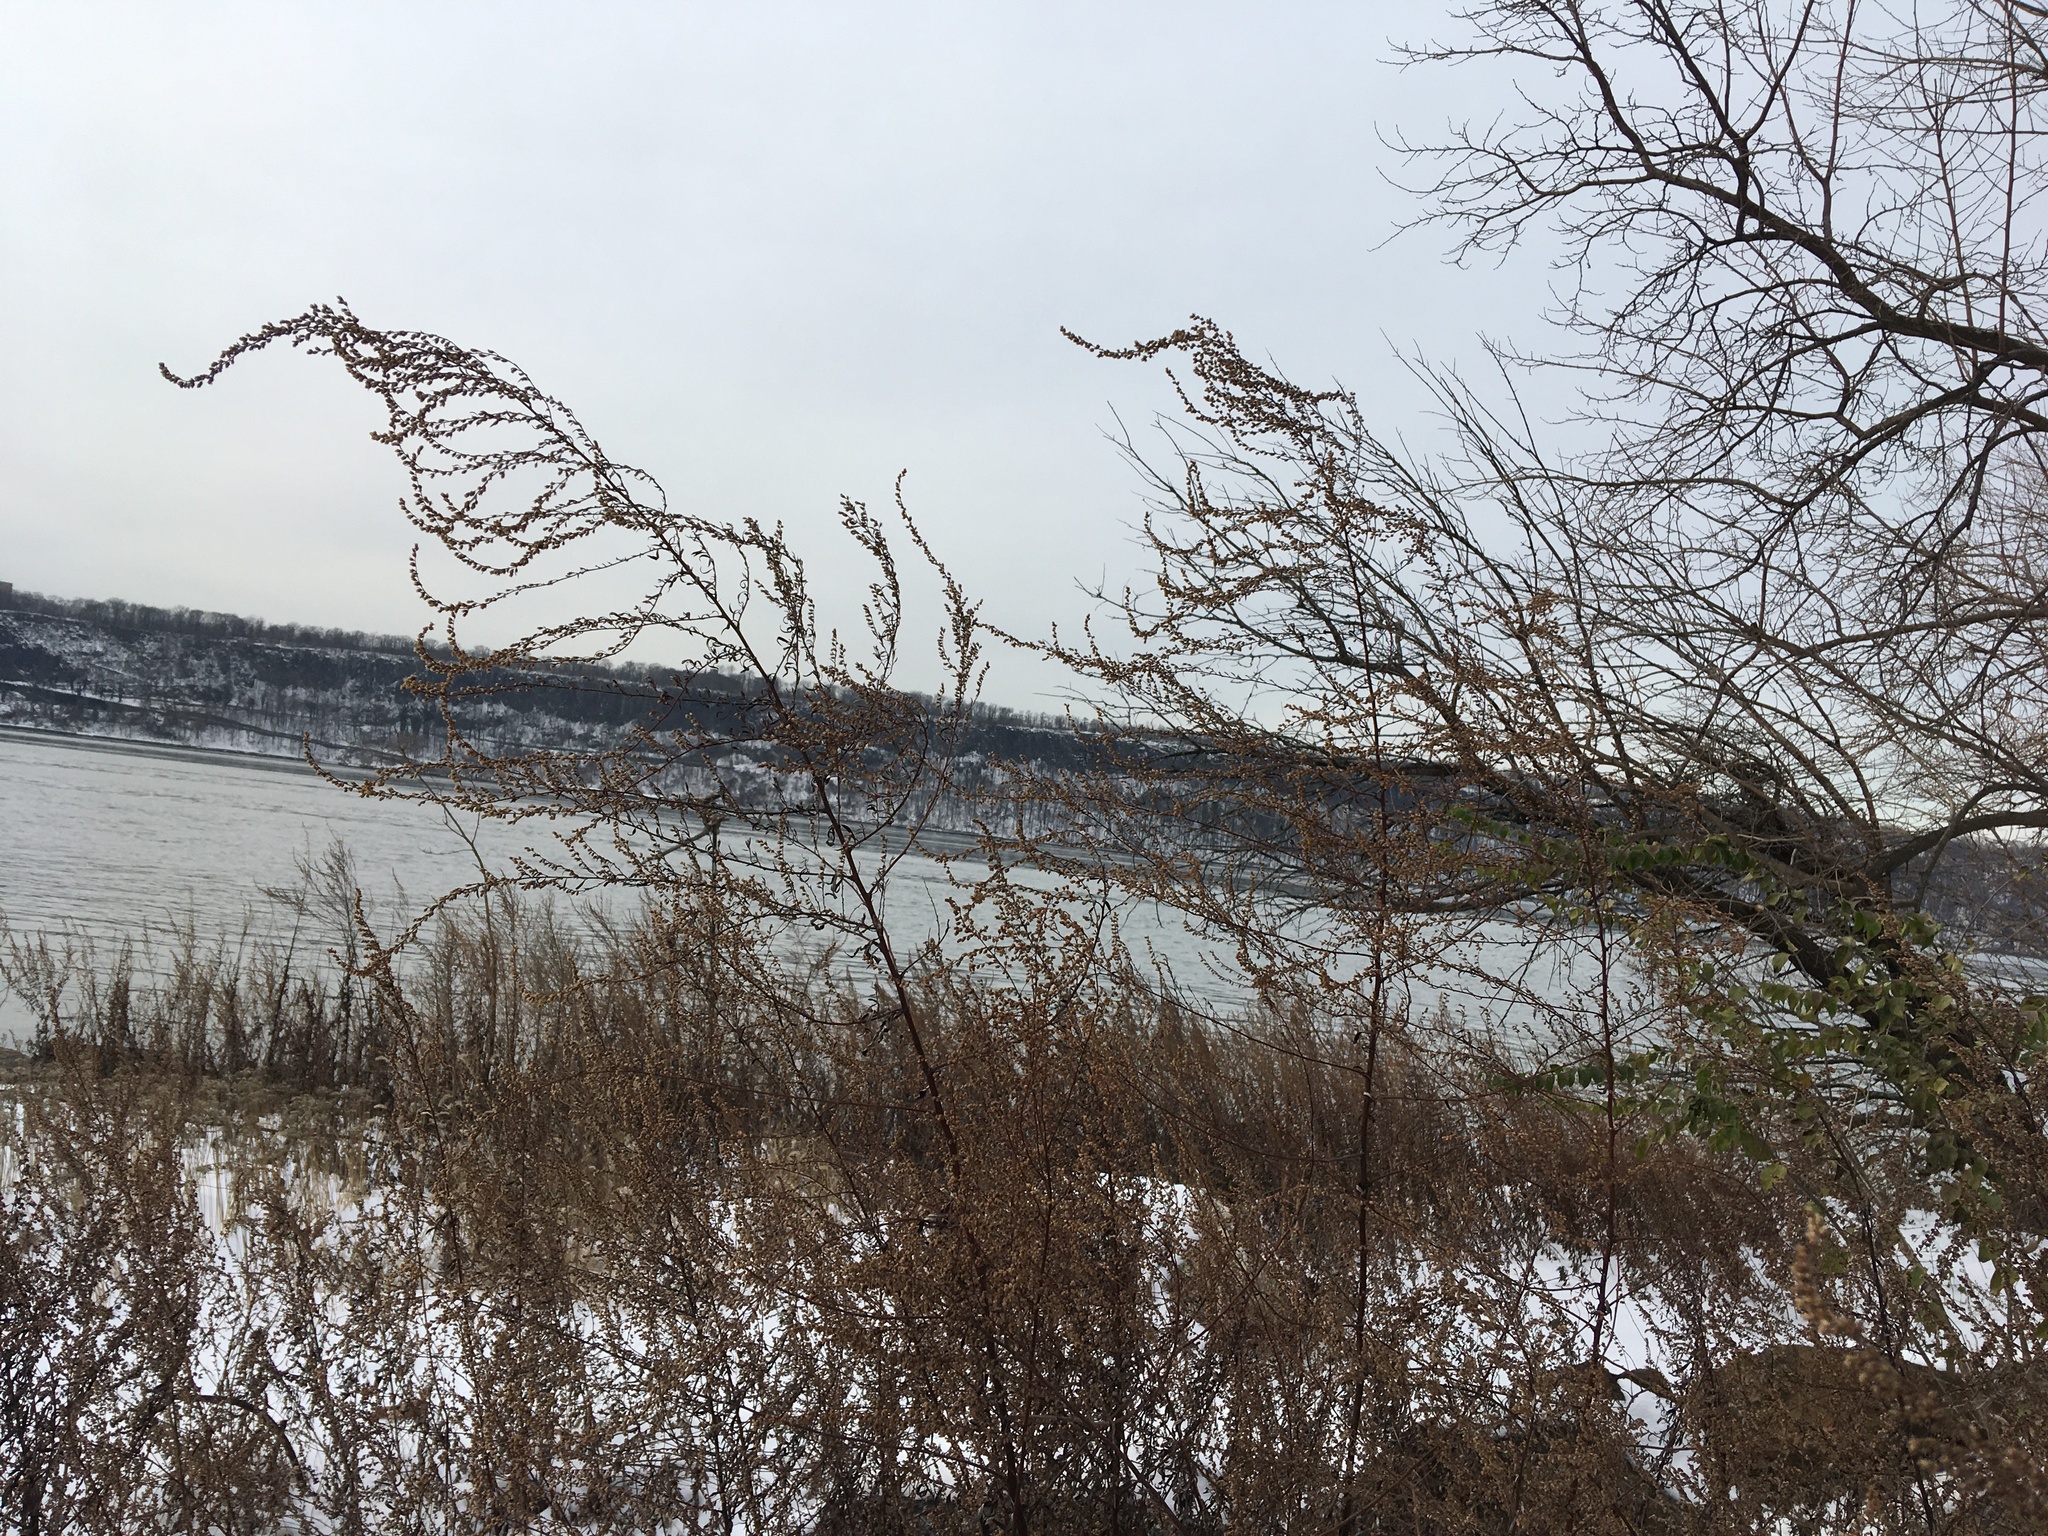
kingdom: Plantae
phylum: Tracheophyta
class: Magnoliopsida
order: Asterales
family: Asteraceae
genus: Artemisia
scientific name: Artemisia vulgaris
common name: Mugwort
